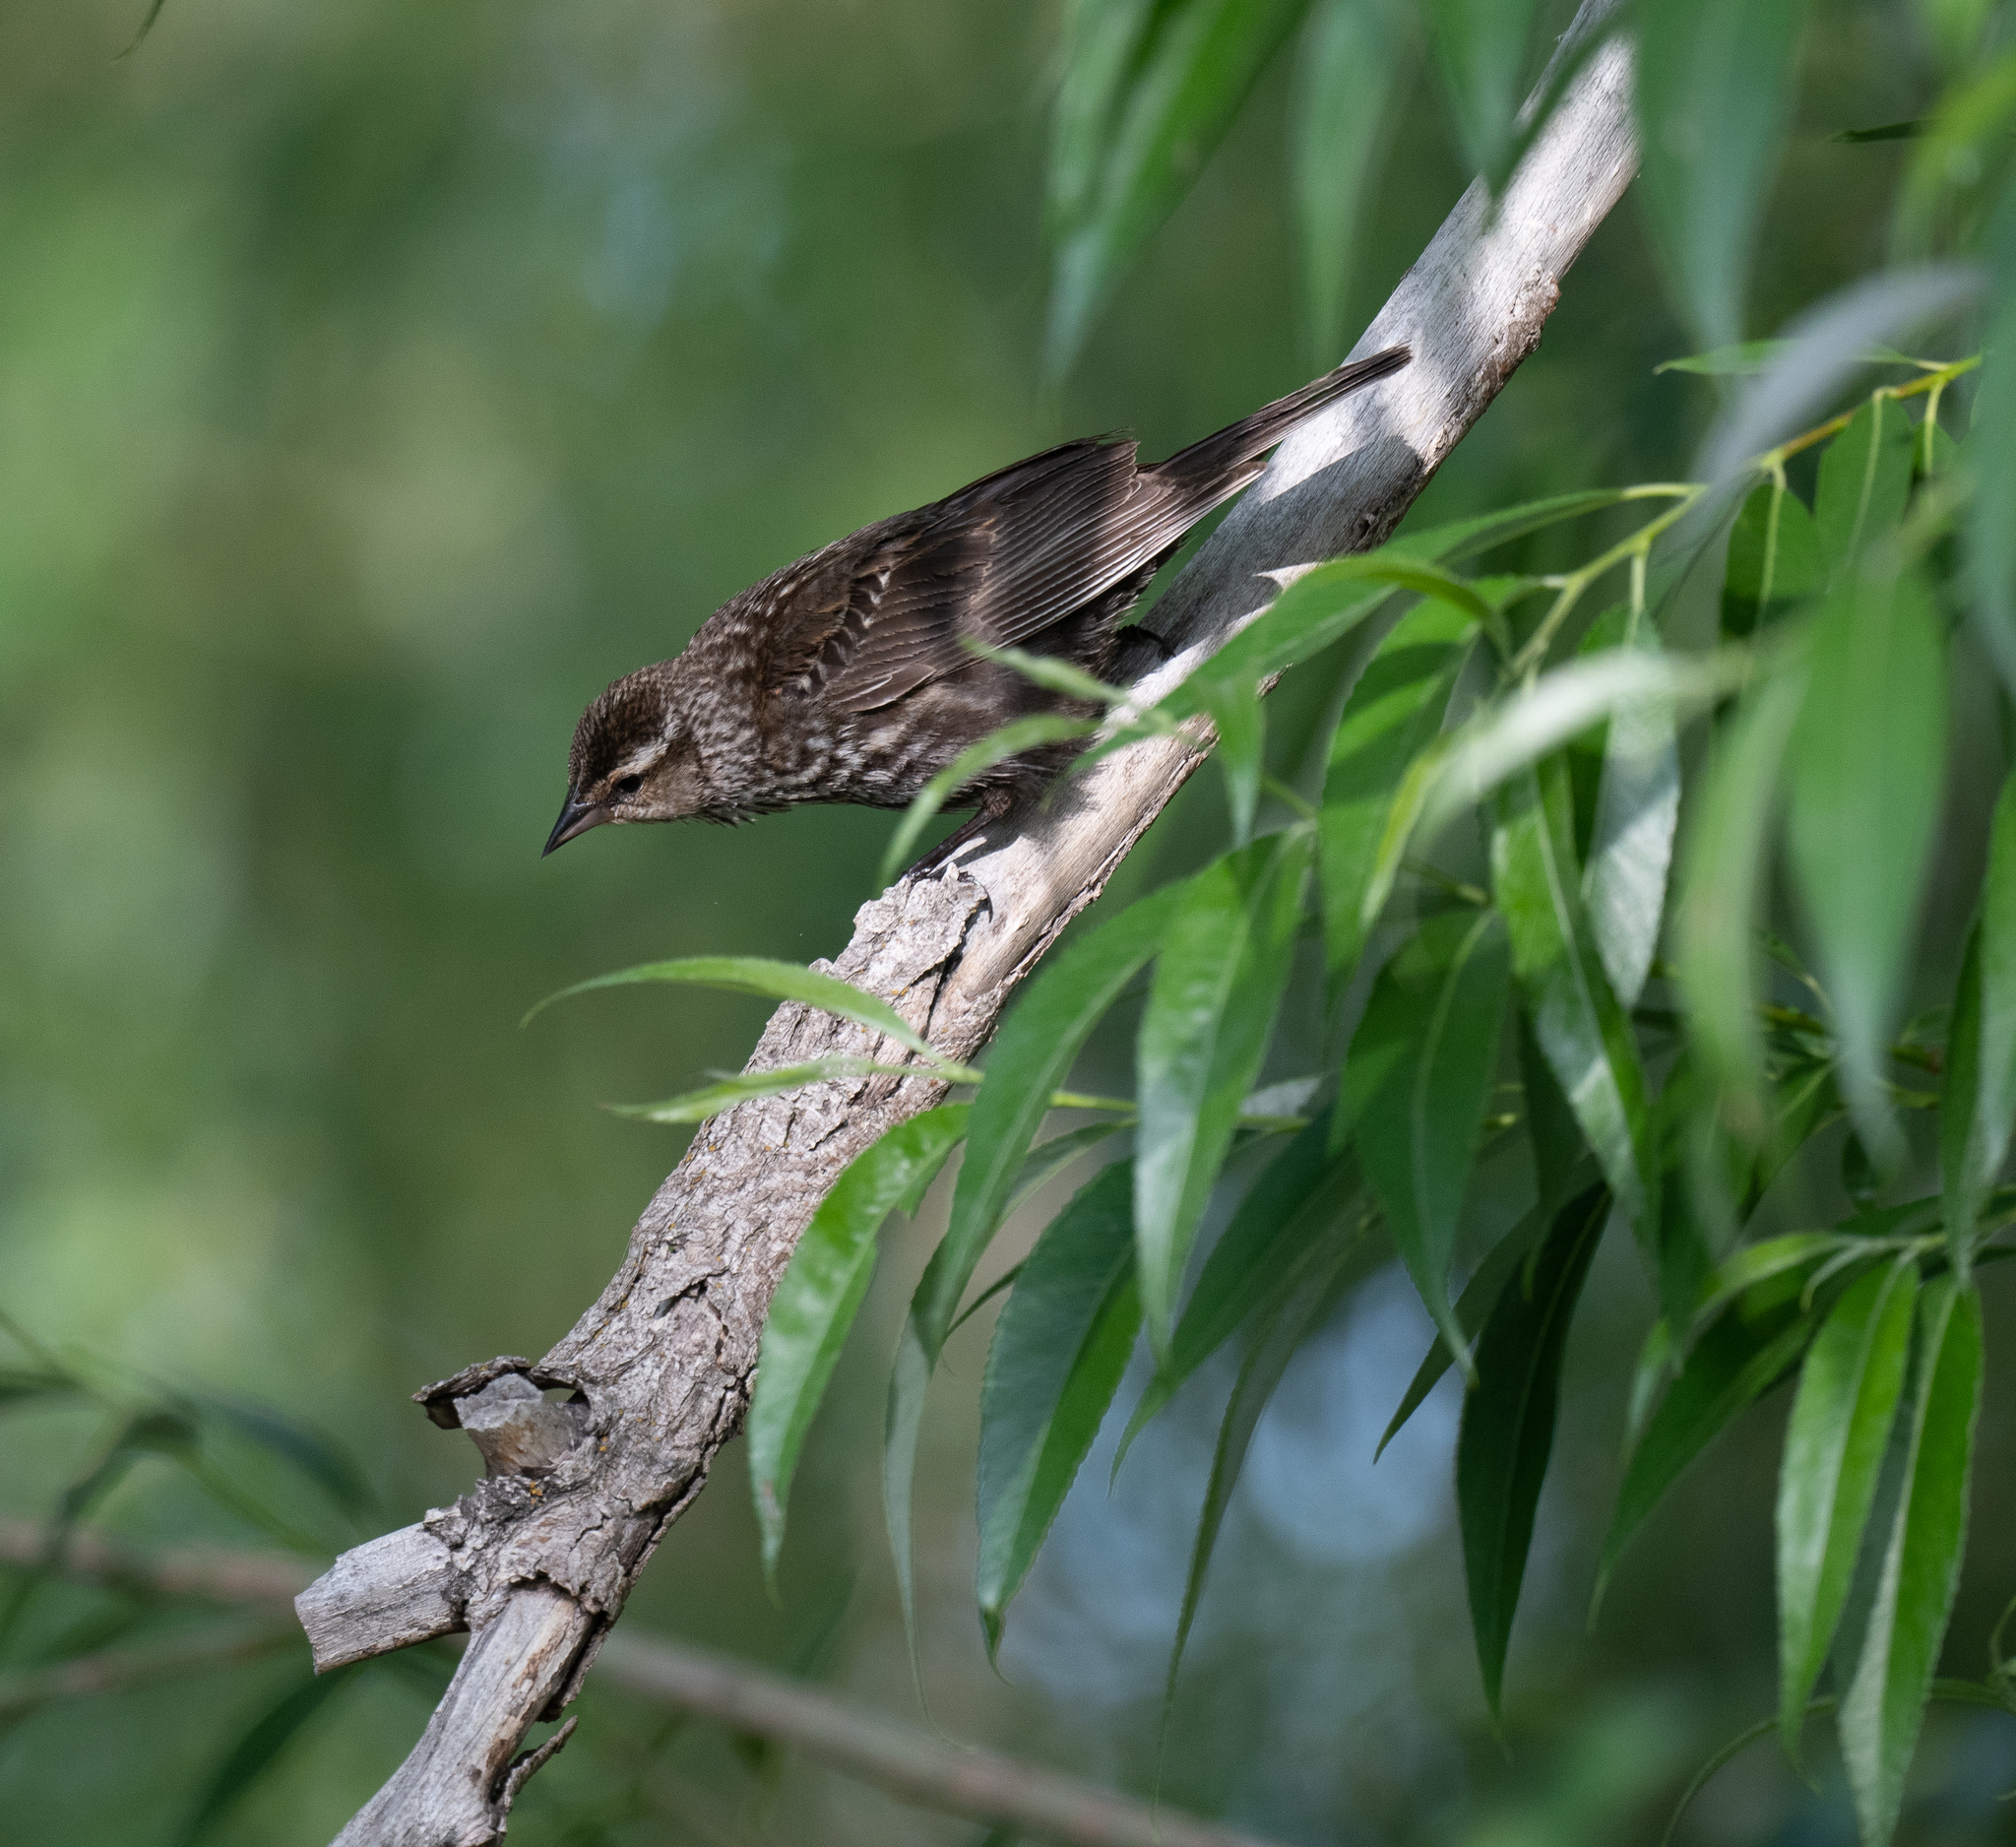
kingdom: Animalia
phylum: Chordata
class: Aves
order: Passeriformes
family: Icteridae
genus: Agelaius
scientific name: Agelaius phoeniceus
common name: Red-winged blackbird
